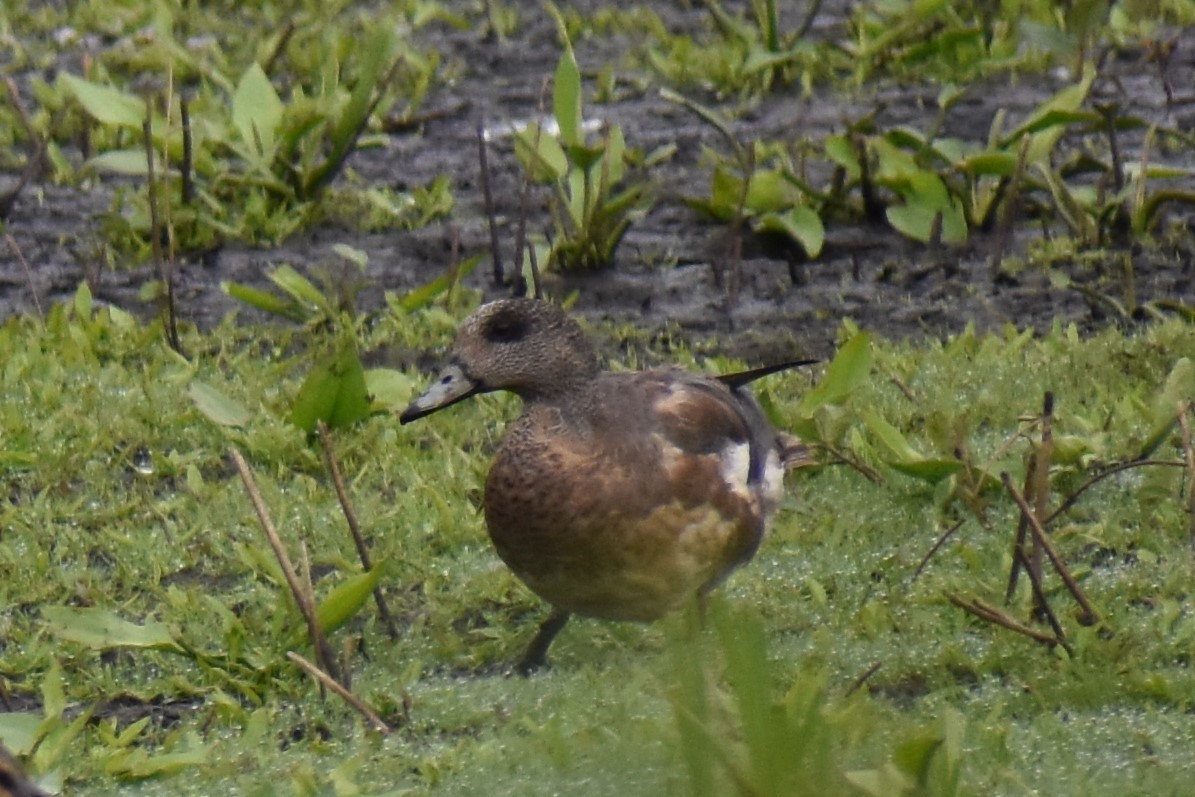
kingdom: Animalia
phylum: Chordata
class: Aves
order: Anseriformes
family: Anatidae
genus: Mareca
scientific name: Mareca americana
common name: American wigeon
